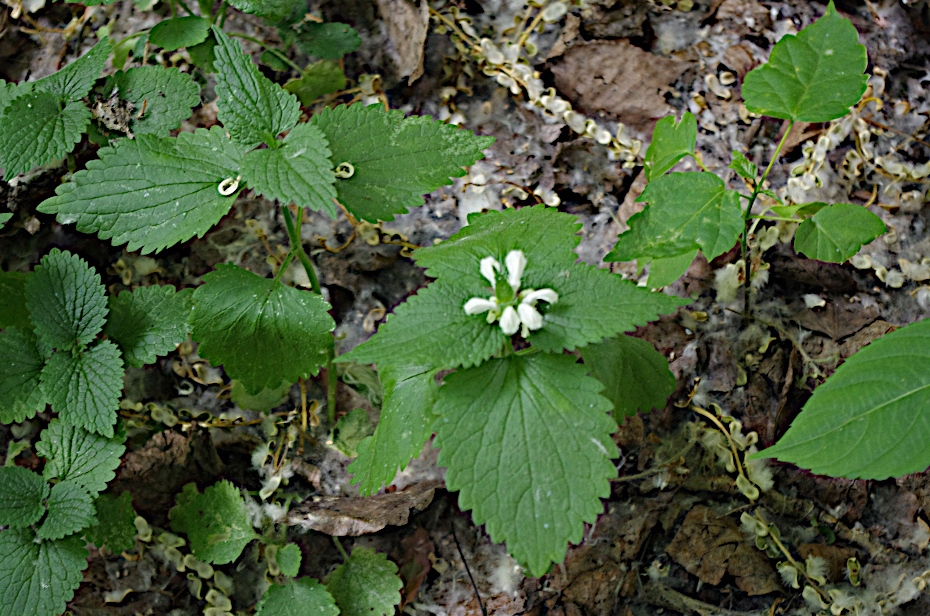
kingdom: Plantae
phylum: Tracheophyta
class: Magnoliopsida
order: Lamiales
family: Lamiaceae
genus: Lamium
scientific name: Lamium album
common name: White dead-nettle
